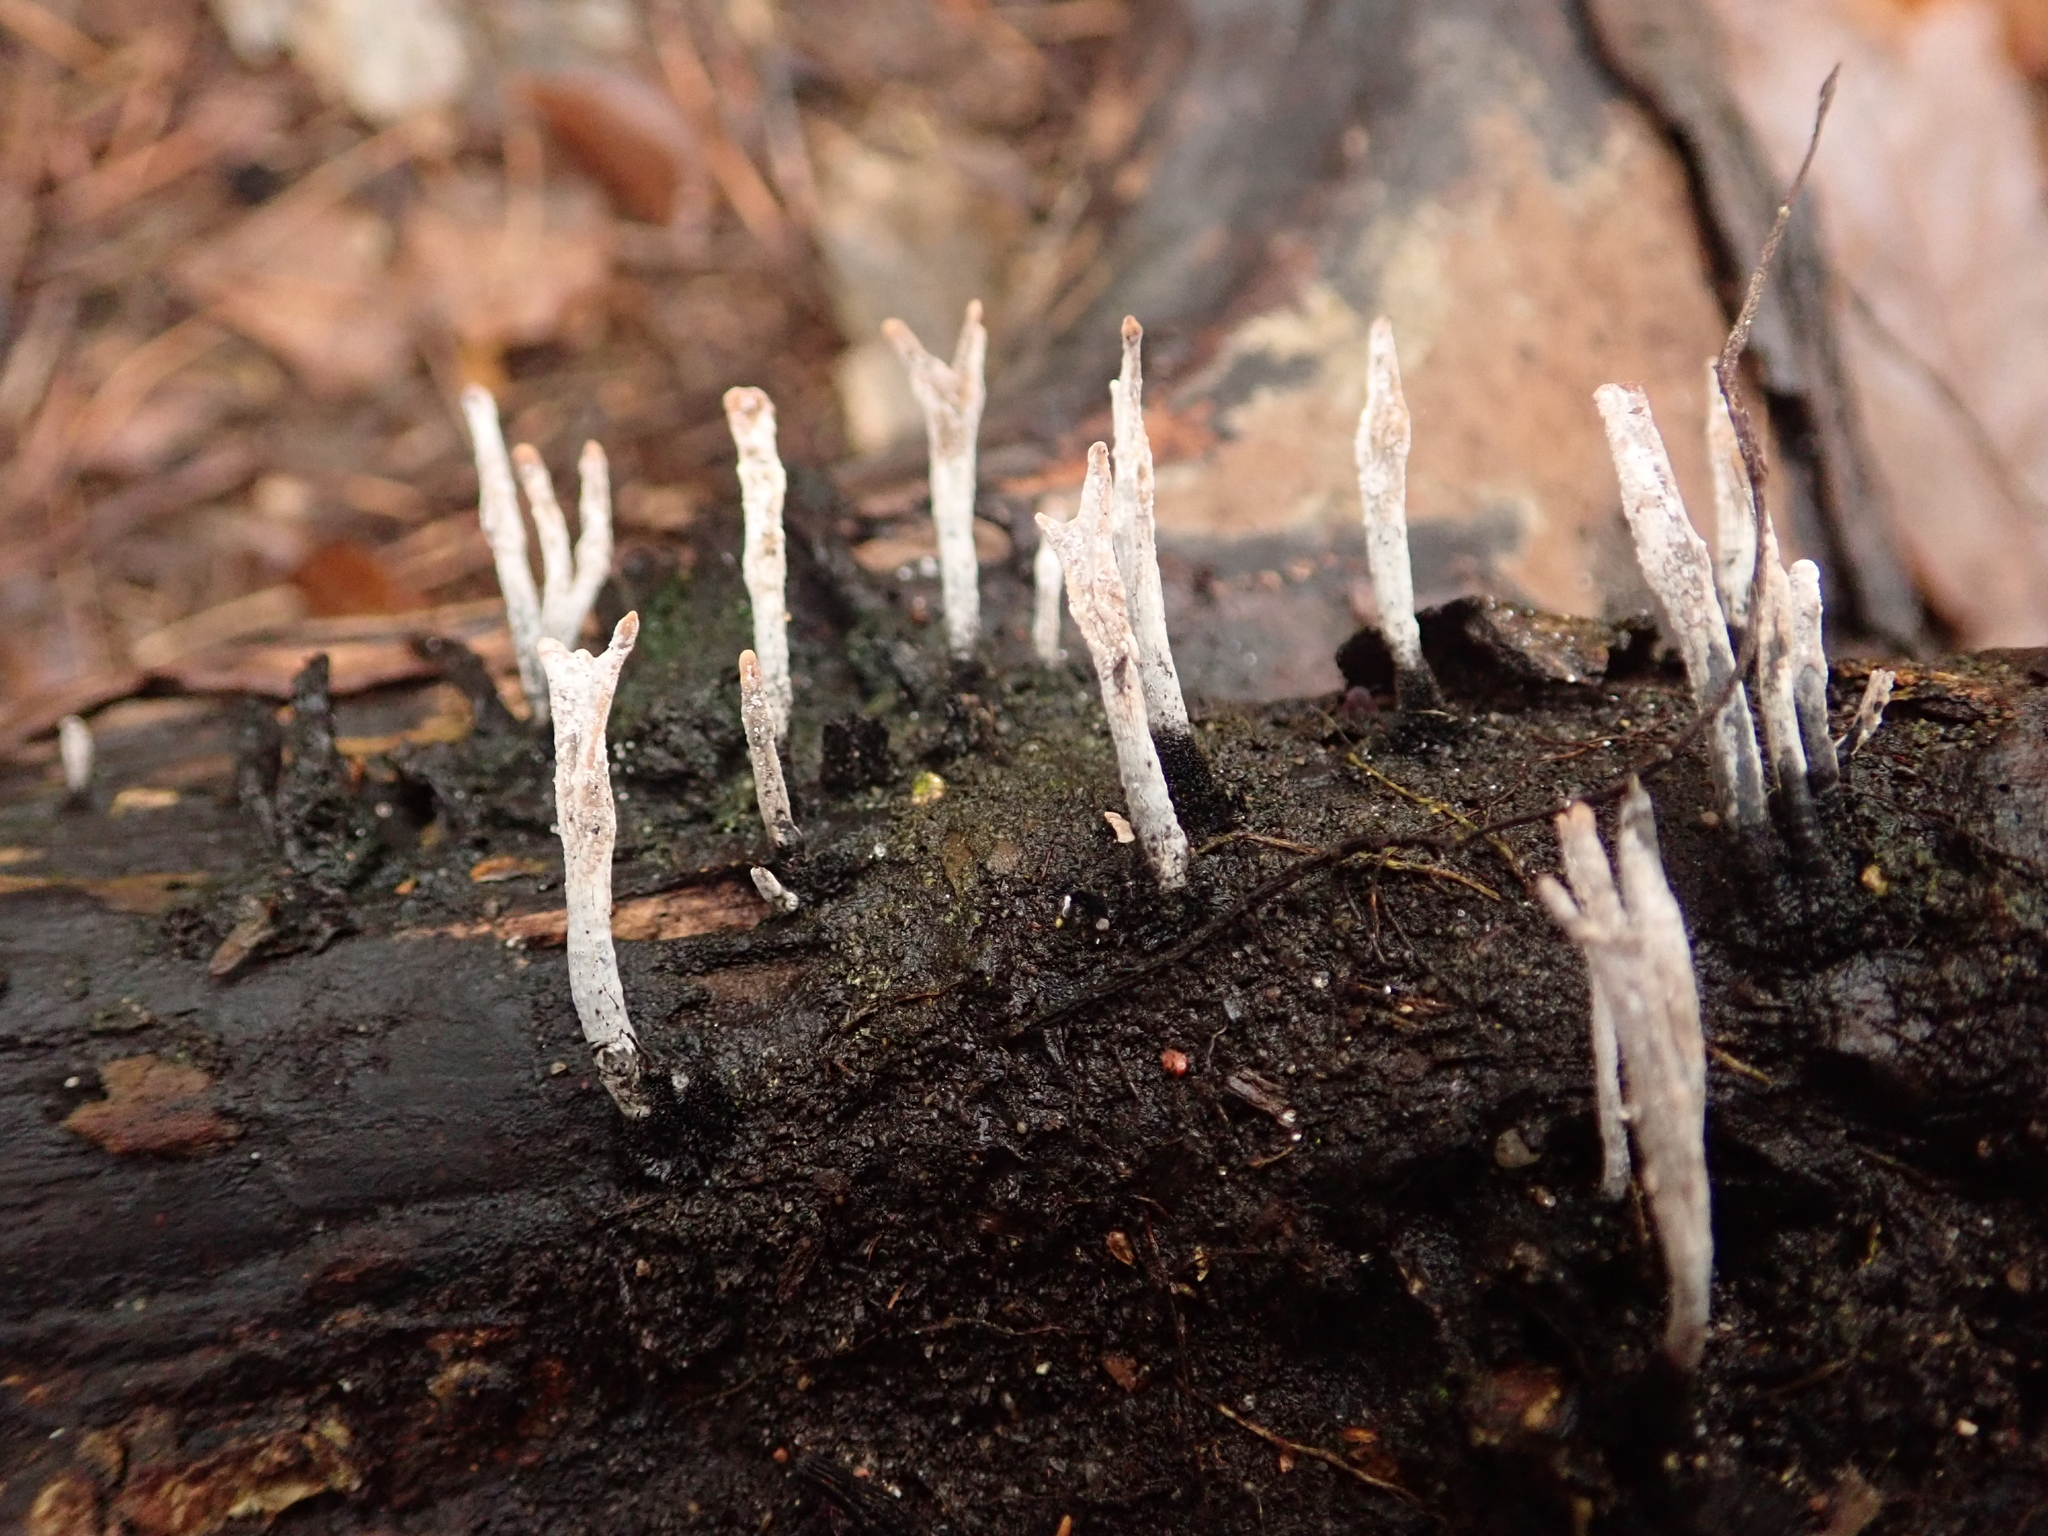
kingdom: Fungi
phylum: Ascomycota
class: Sordariomycetes
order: Xylariales
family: Xylariaceae
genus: Xylaria
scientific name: Xylaria hypoxylon
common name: Candle-snuff fungus
